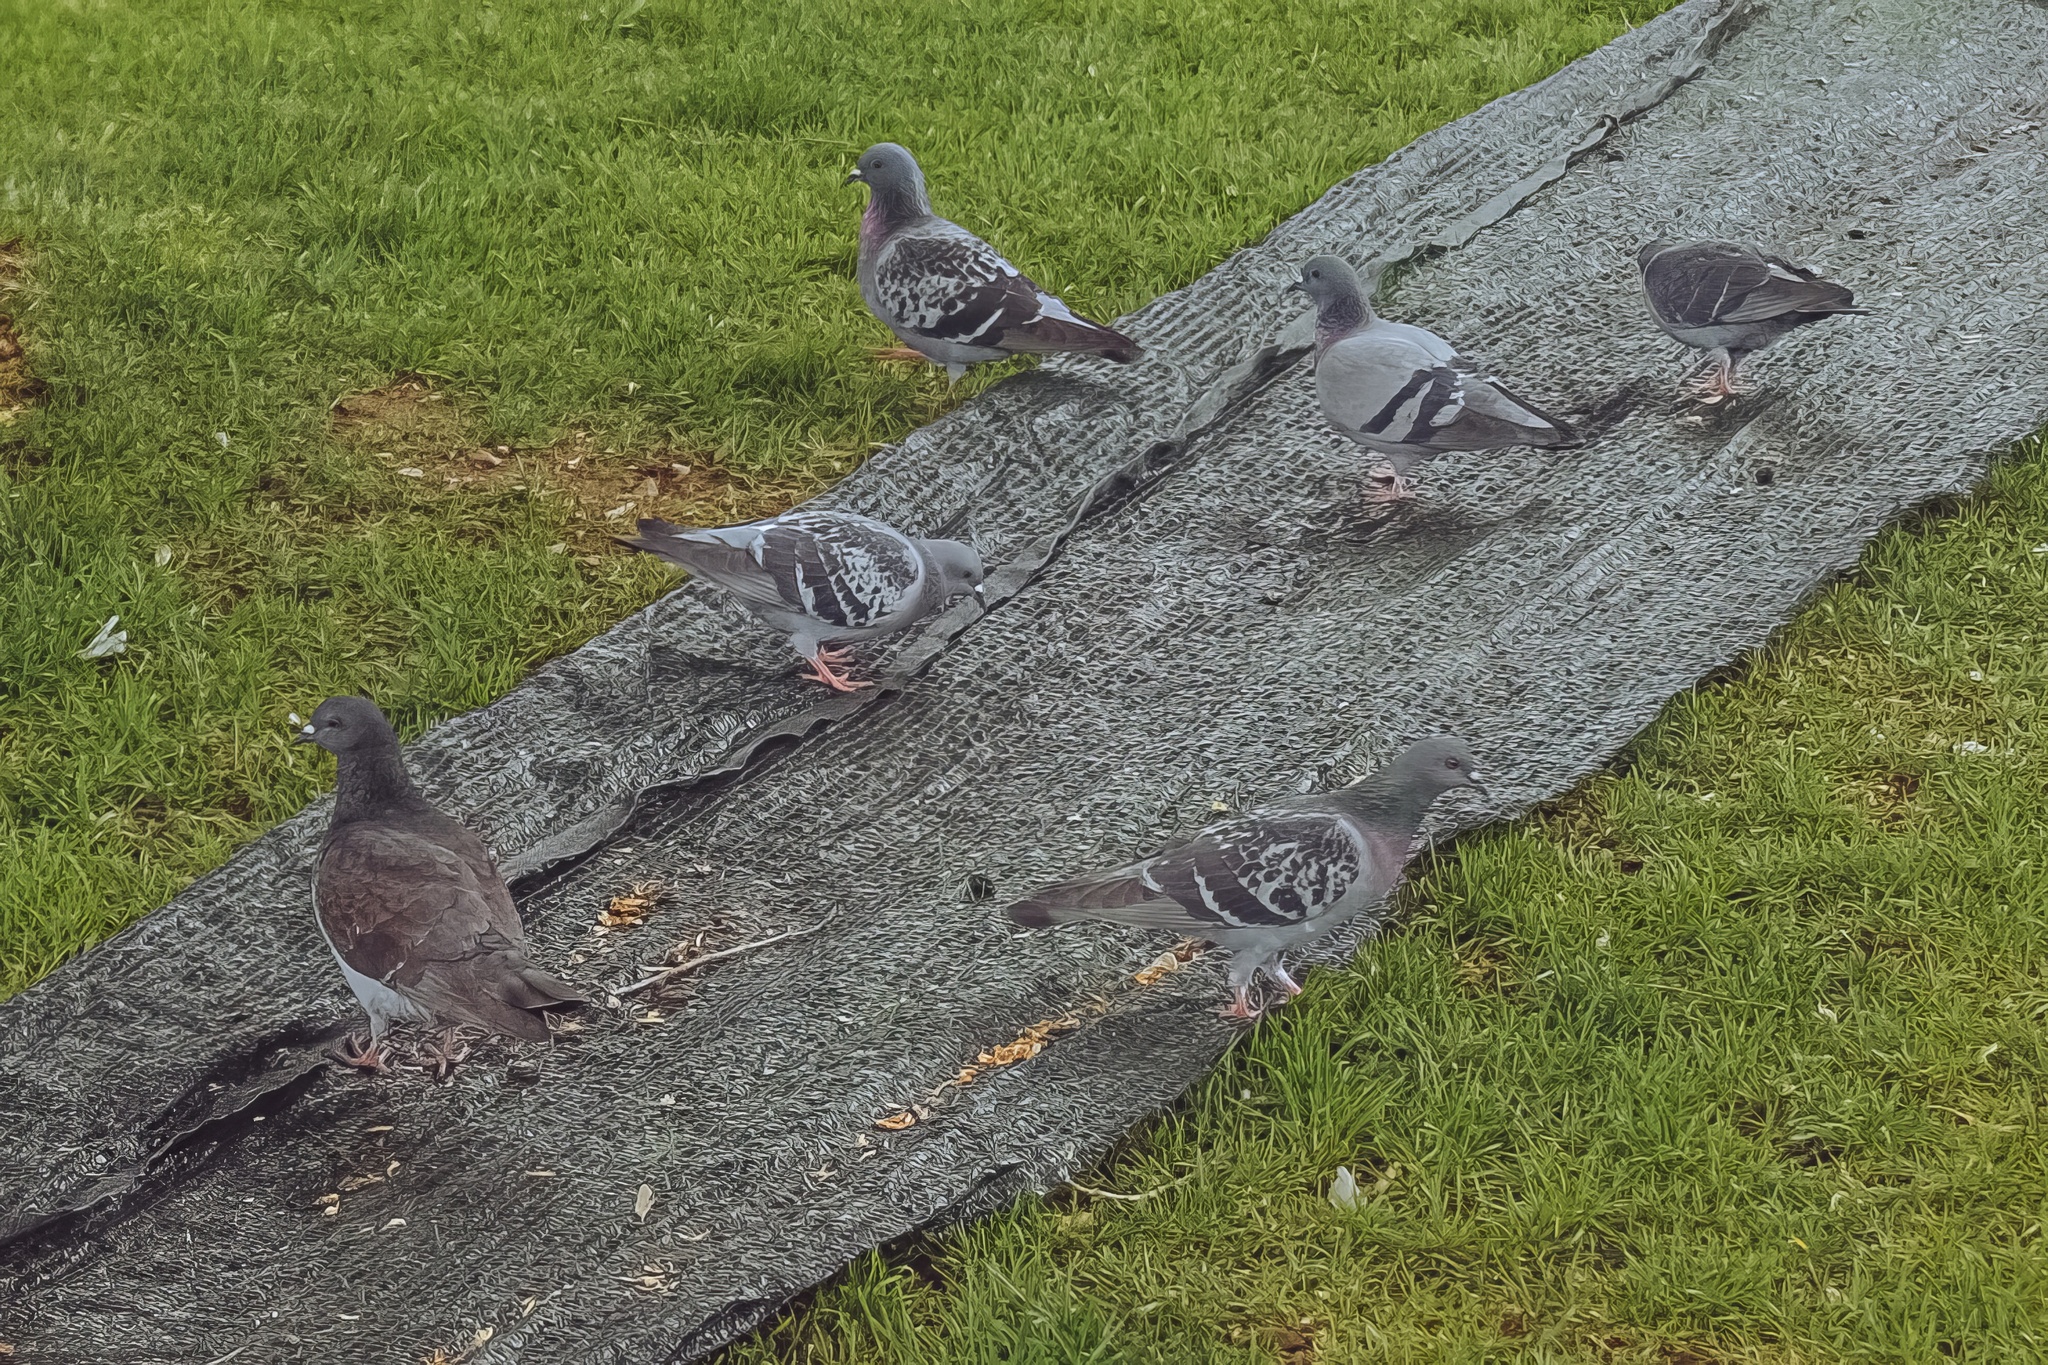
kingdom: Animalia
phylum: Chordata
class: Aves
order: Columbiformes
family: Columbidae
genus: Columba
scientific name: Columba livia
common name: Rock pigeon
